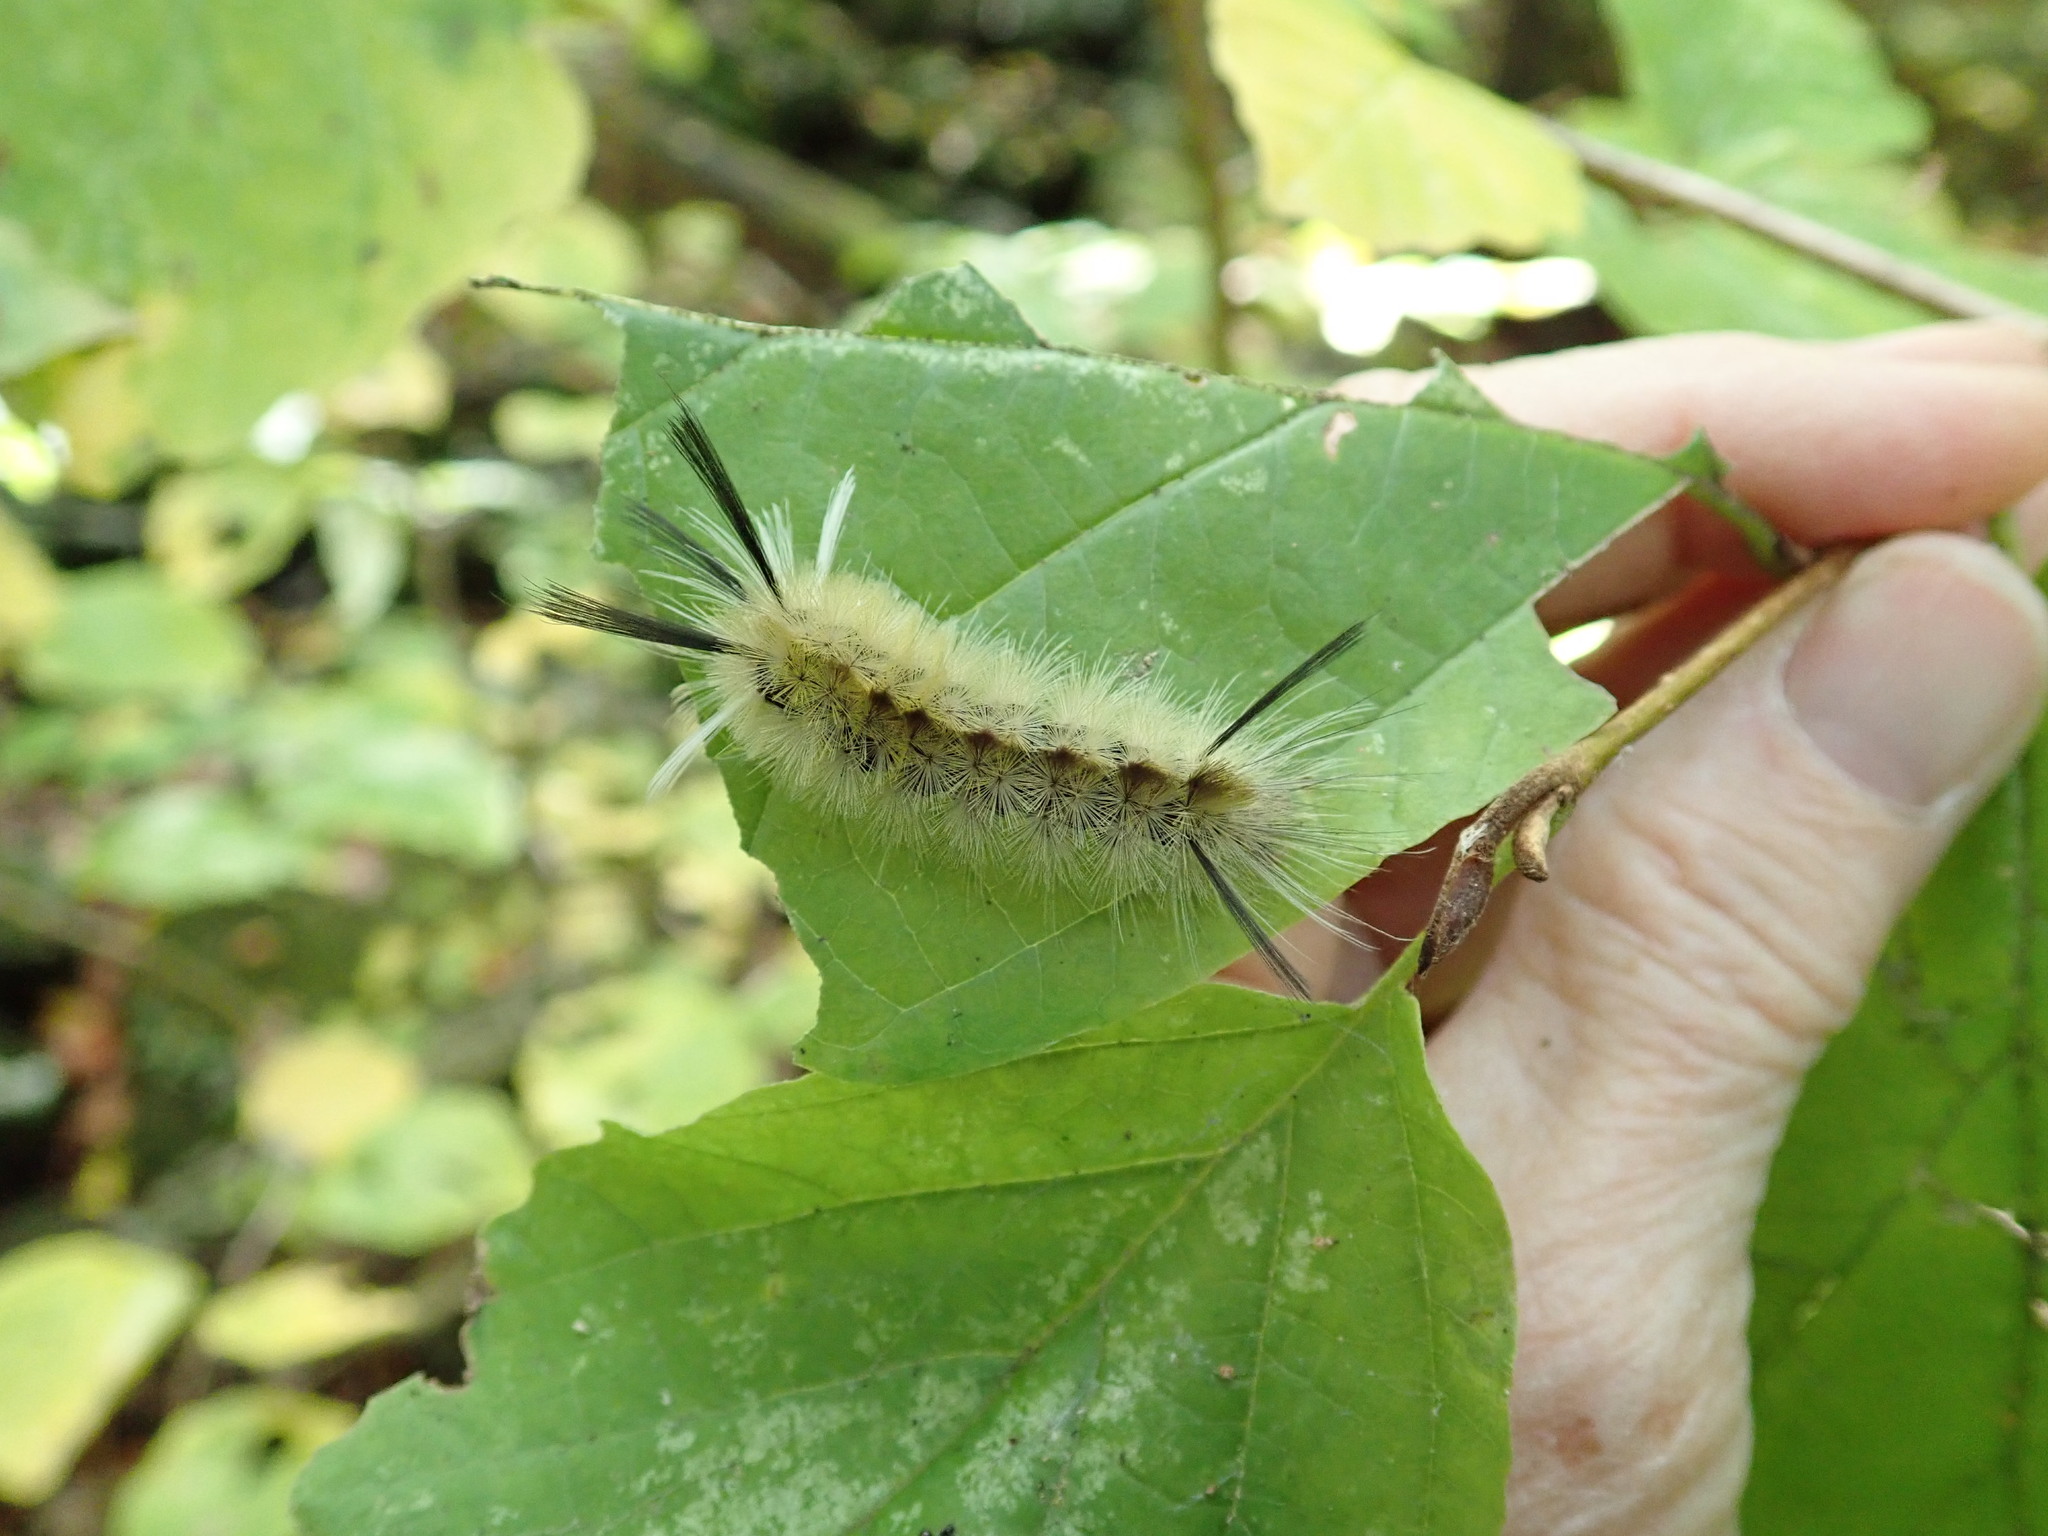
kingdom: Animalia
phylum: Arthropoda
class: Insecta
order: Lepidoptera
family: Erebidae
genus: Halysidota
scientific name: Halysidota tessellaris
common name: Banded tussock moth
